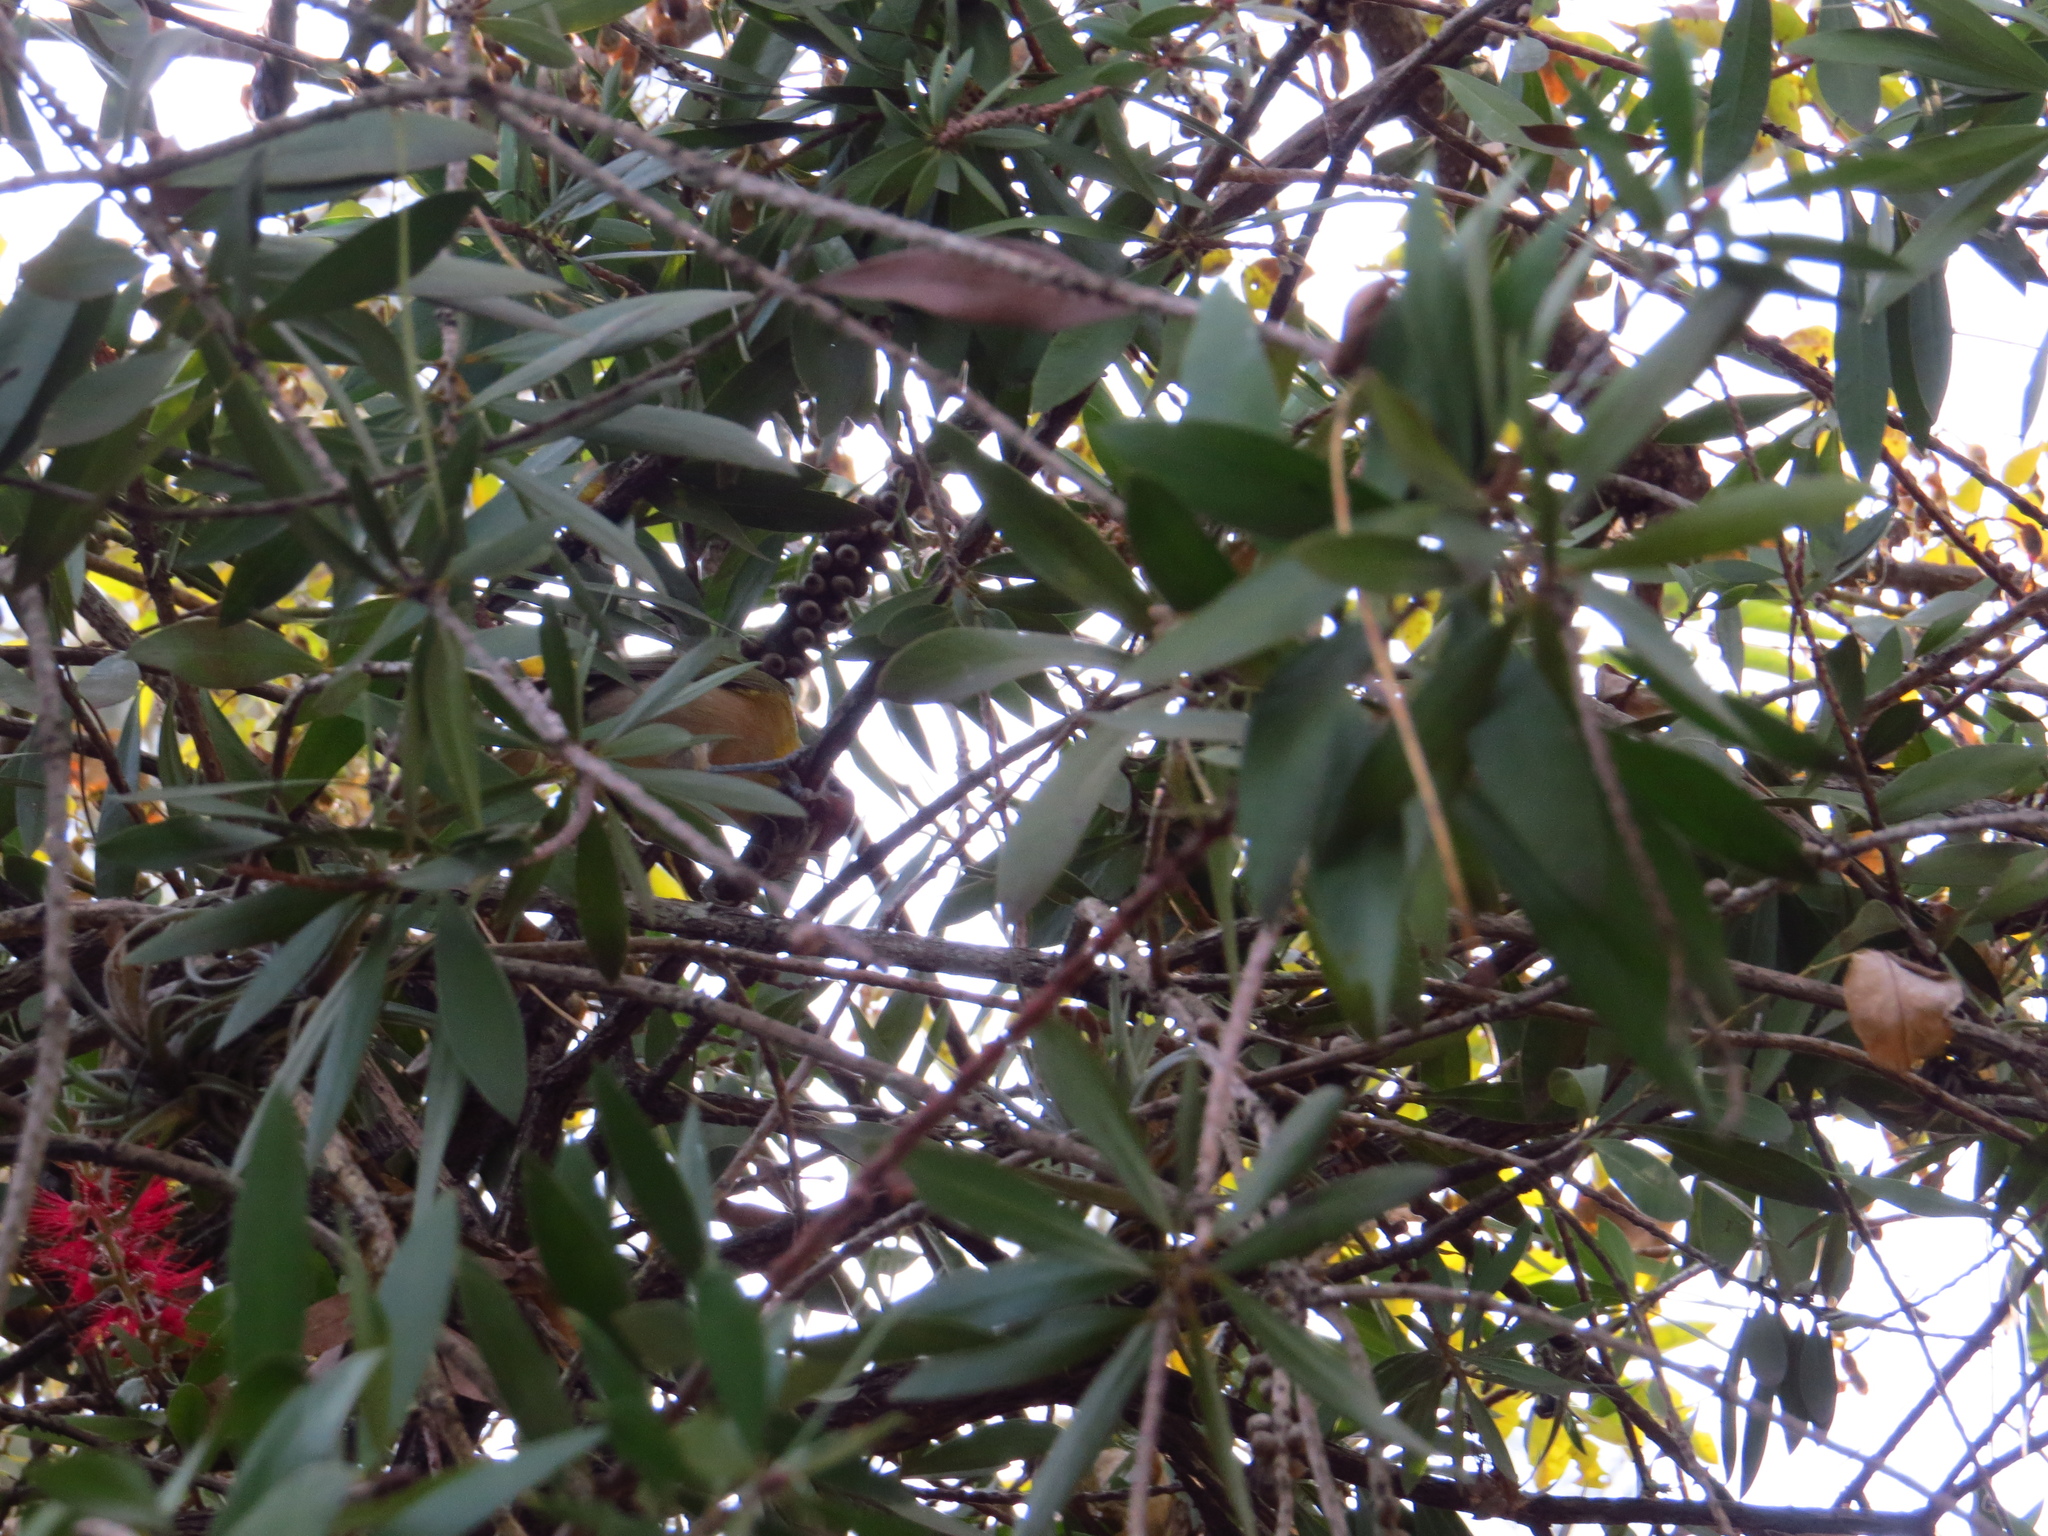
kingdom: Animalia
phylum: Chordata
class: Aves
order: Passeriformes
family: Vireonidae
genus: Cyclarhis
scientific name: Cyclarhis gujanensis
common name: Rufous-browed peppershrike
